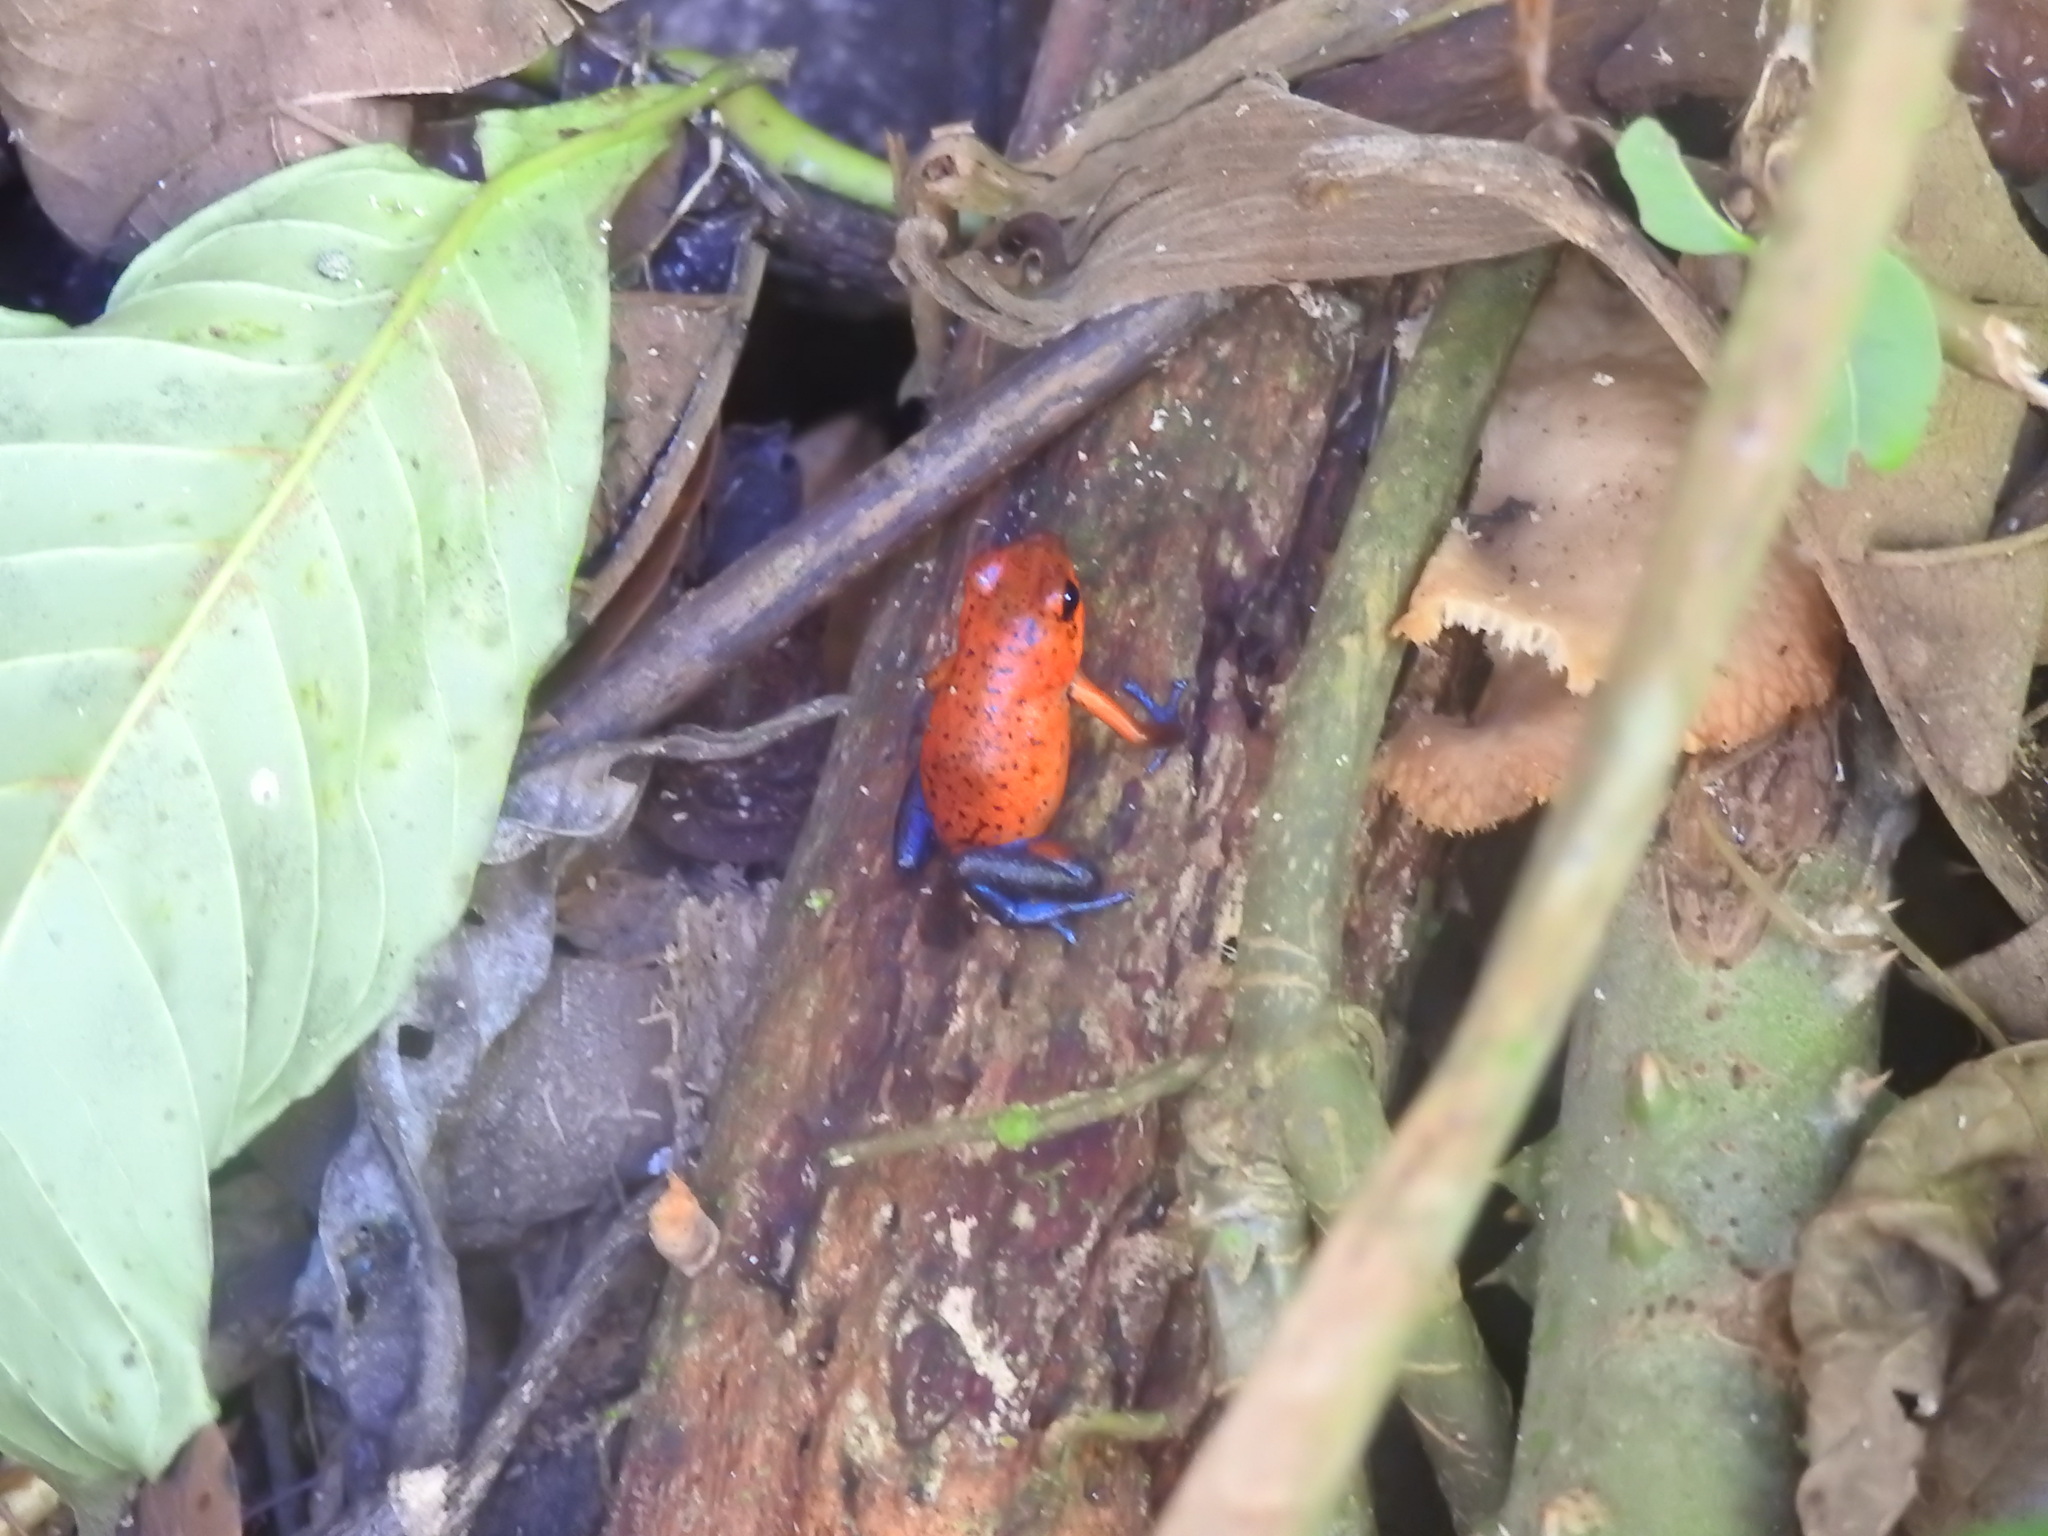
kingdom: Animalia
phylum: Chordata
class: Amphibia
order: Anura
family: Dendrobatidae
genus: Oophaga
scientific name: Oophaga pumilio
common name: Flaming poison frog
